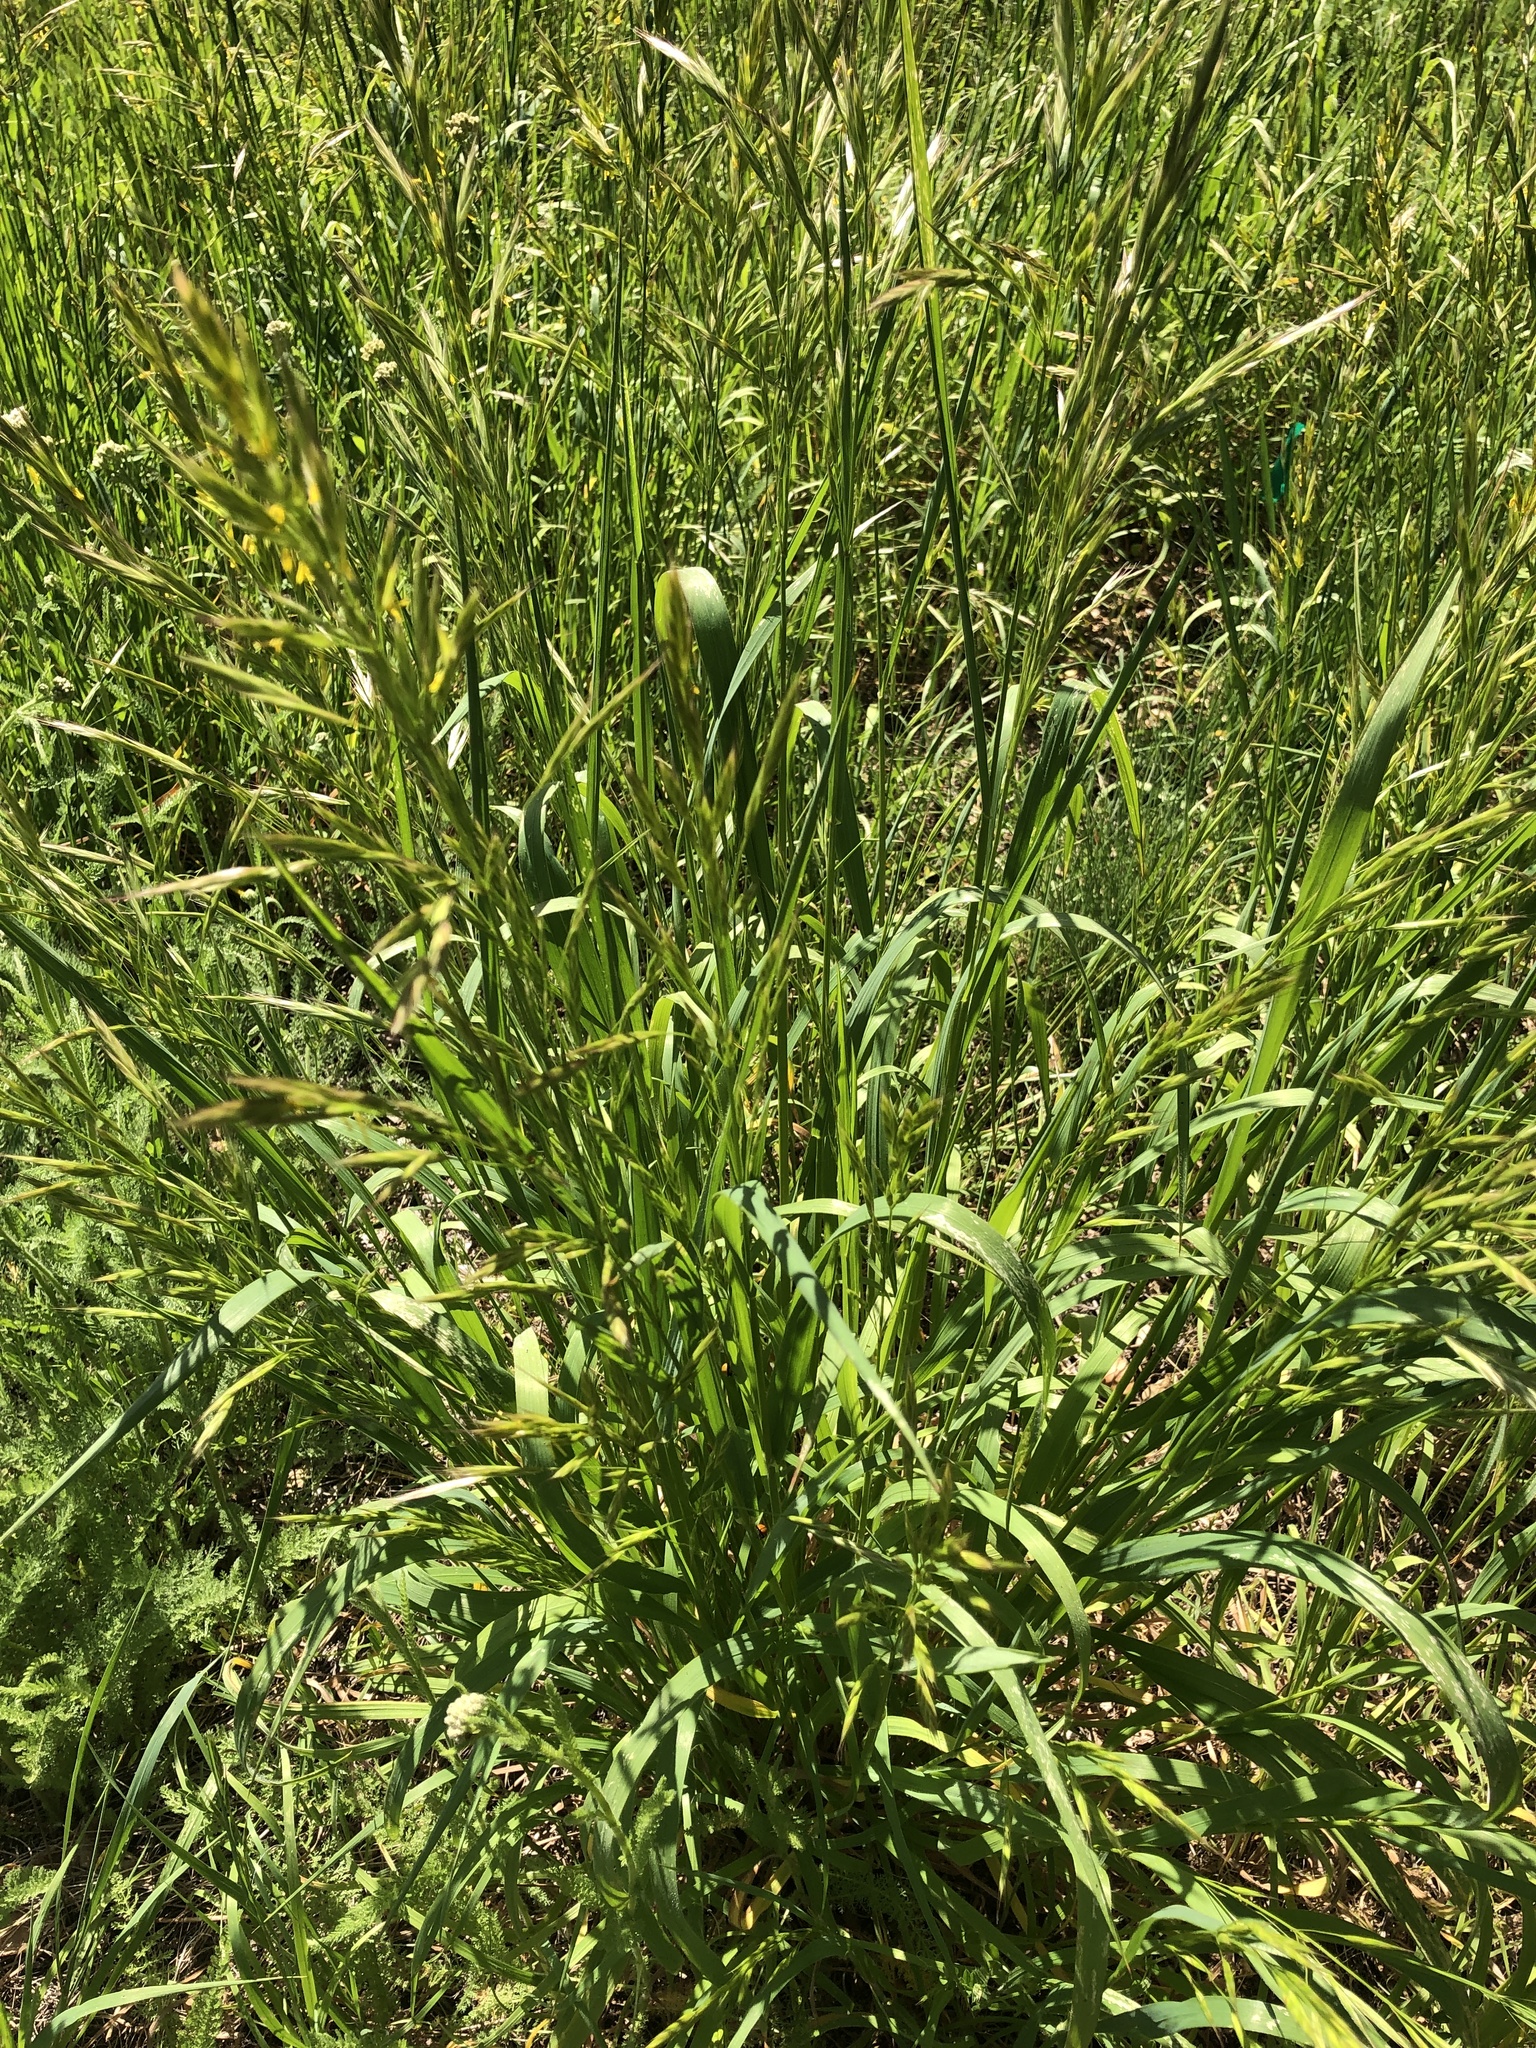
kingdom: Plantae
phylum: Tracheophyta
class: Liliopsida
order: Poales
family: Poaceae
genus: Bromus
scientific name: Bromus carinatus
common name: Mountain brome
